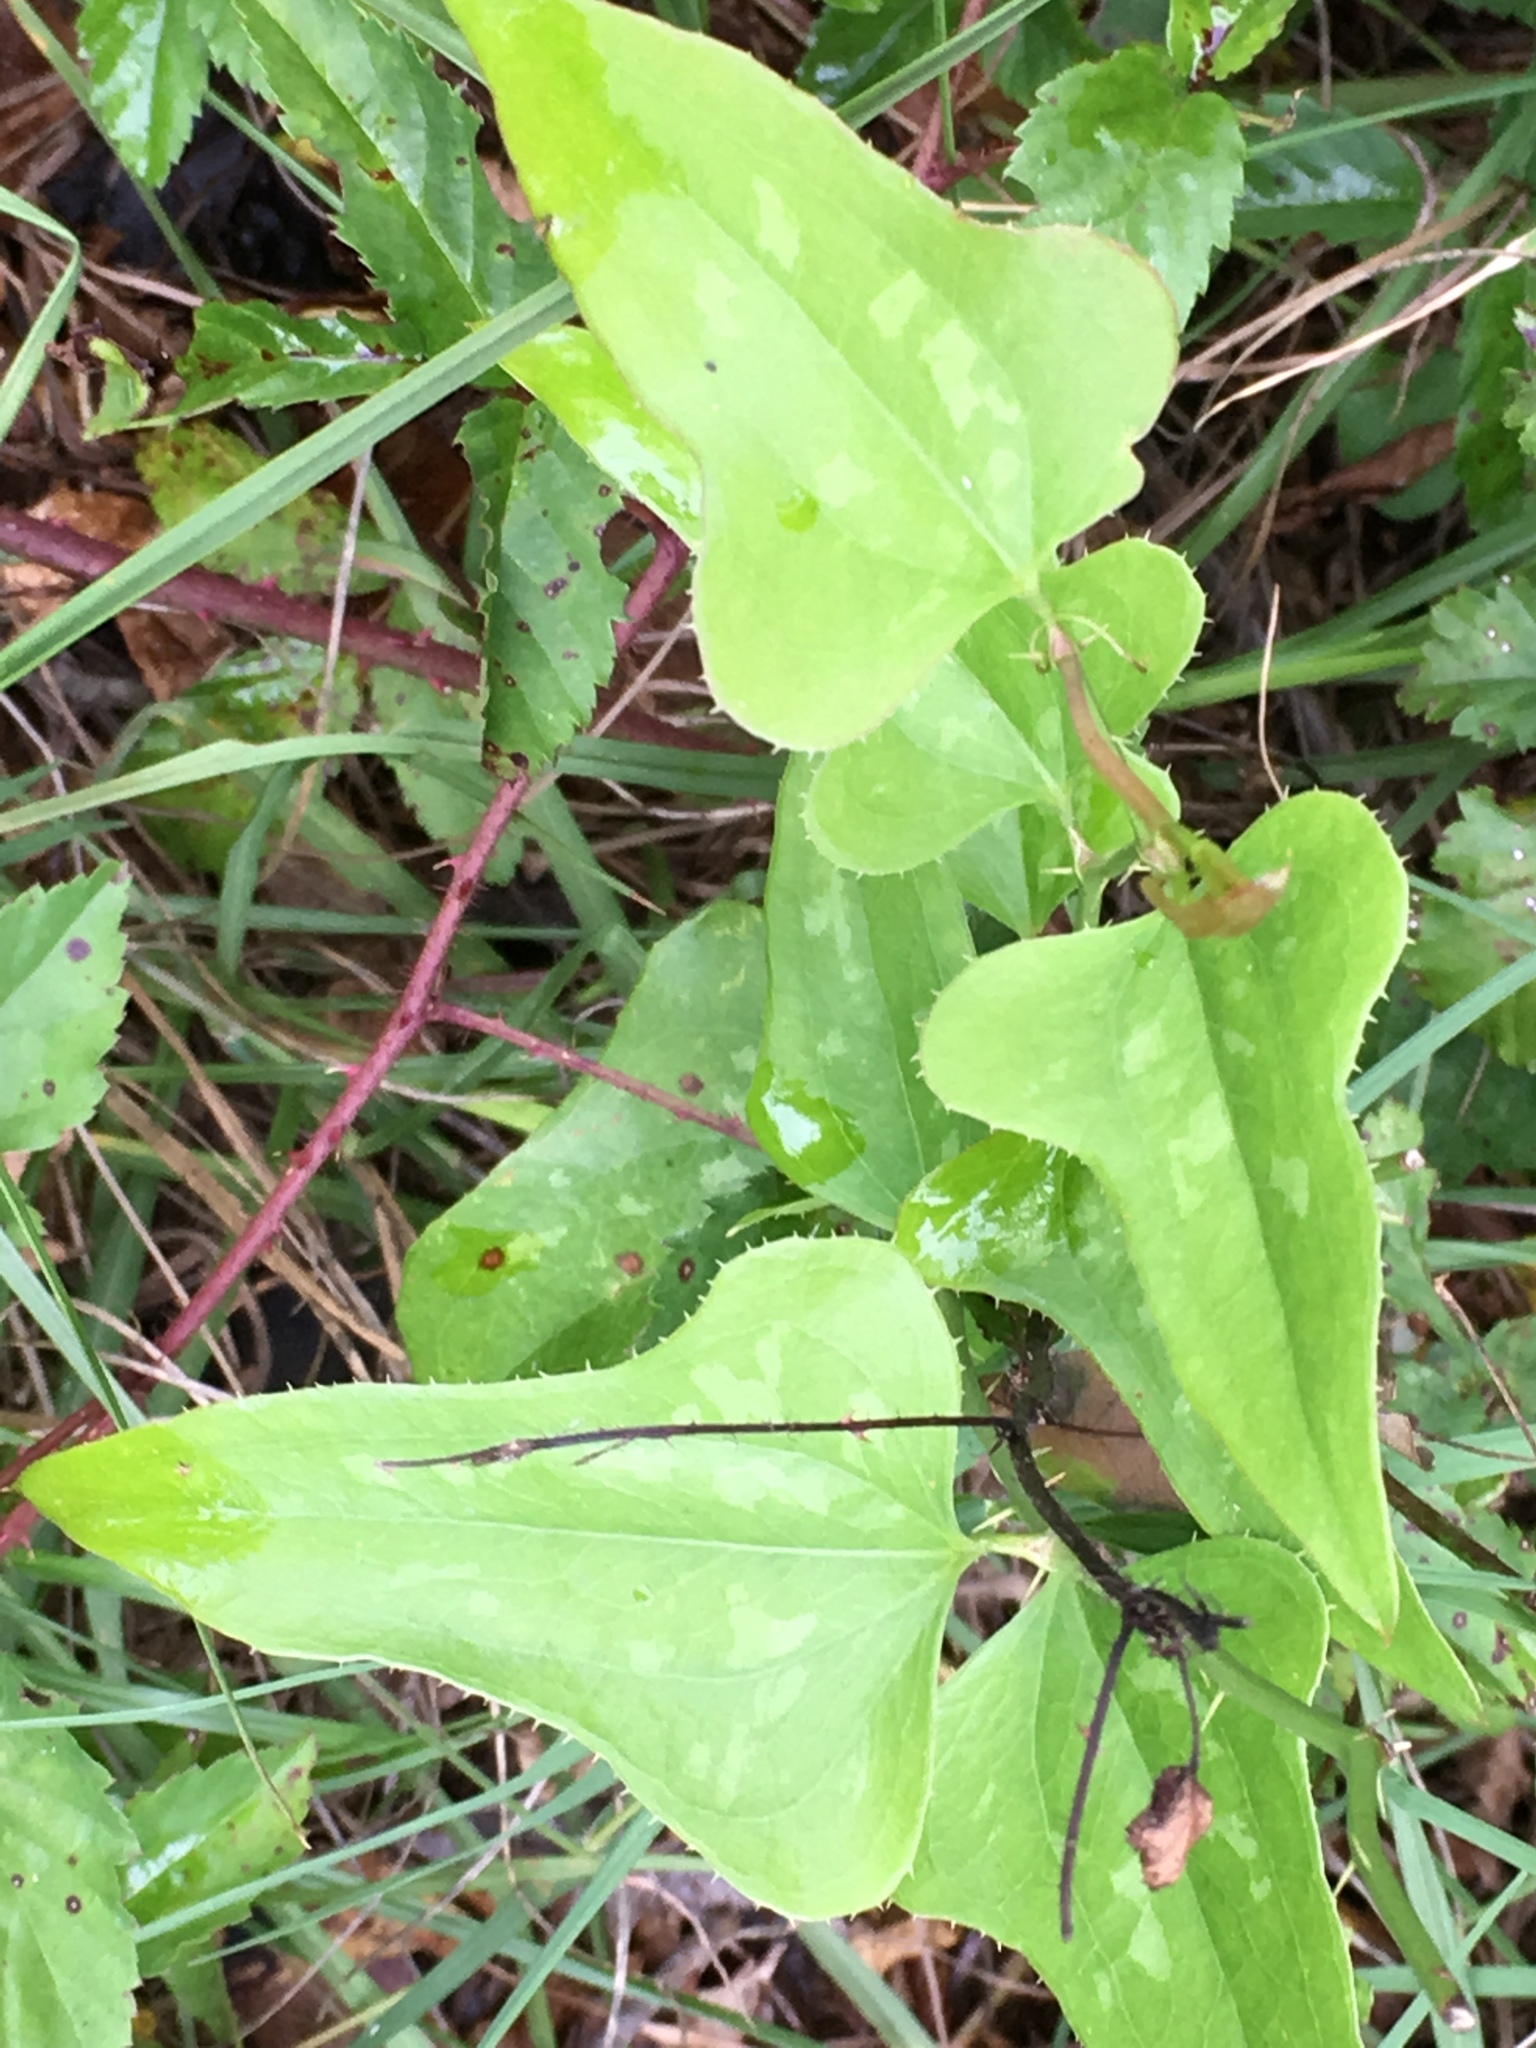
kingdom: Plantae
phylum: Tracheophyta
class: Liliopsida
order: Liliales
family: Smilacaceae
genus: Smilax
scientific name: Smilax bona-nox
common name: Catbrier
